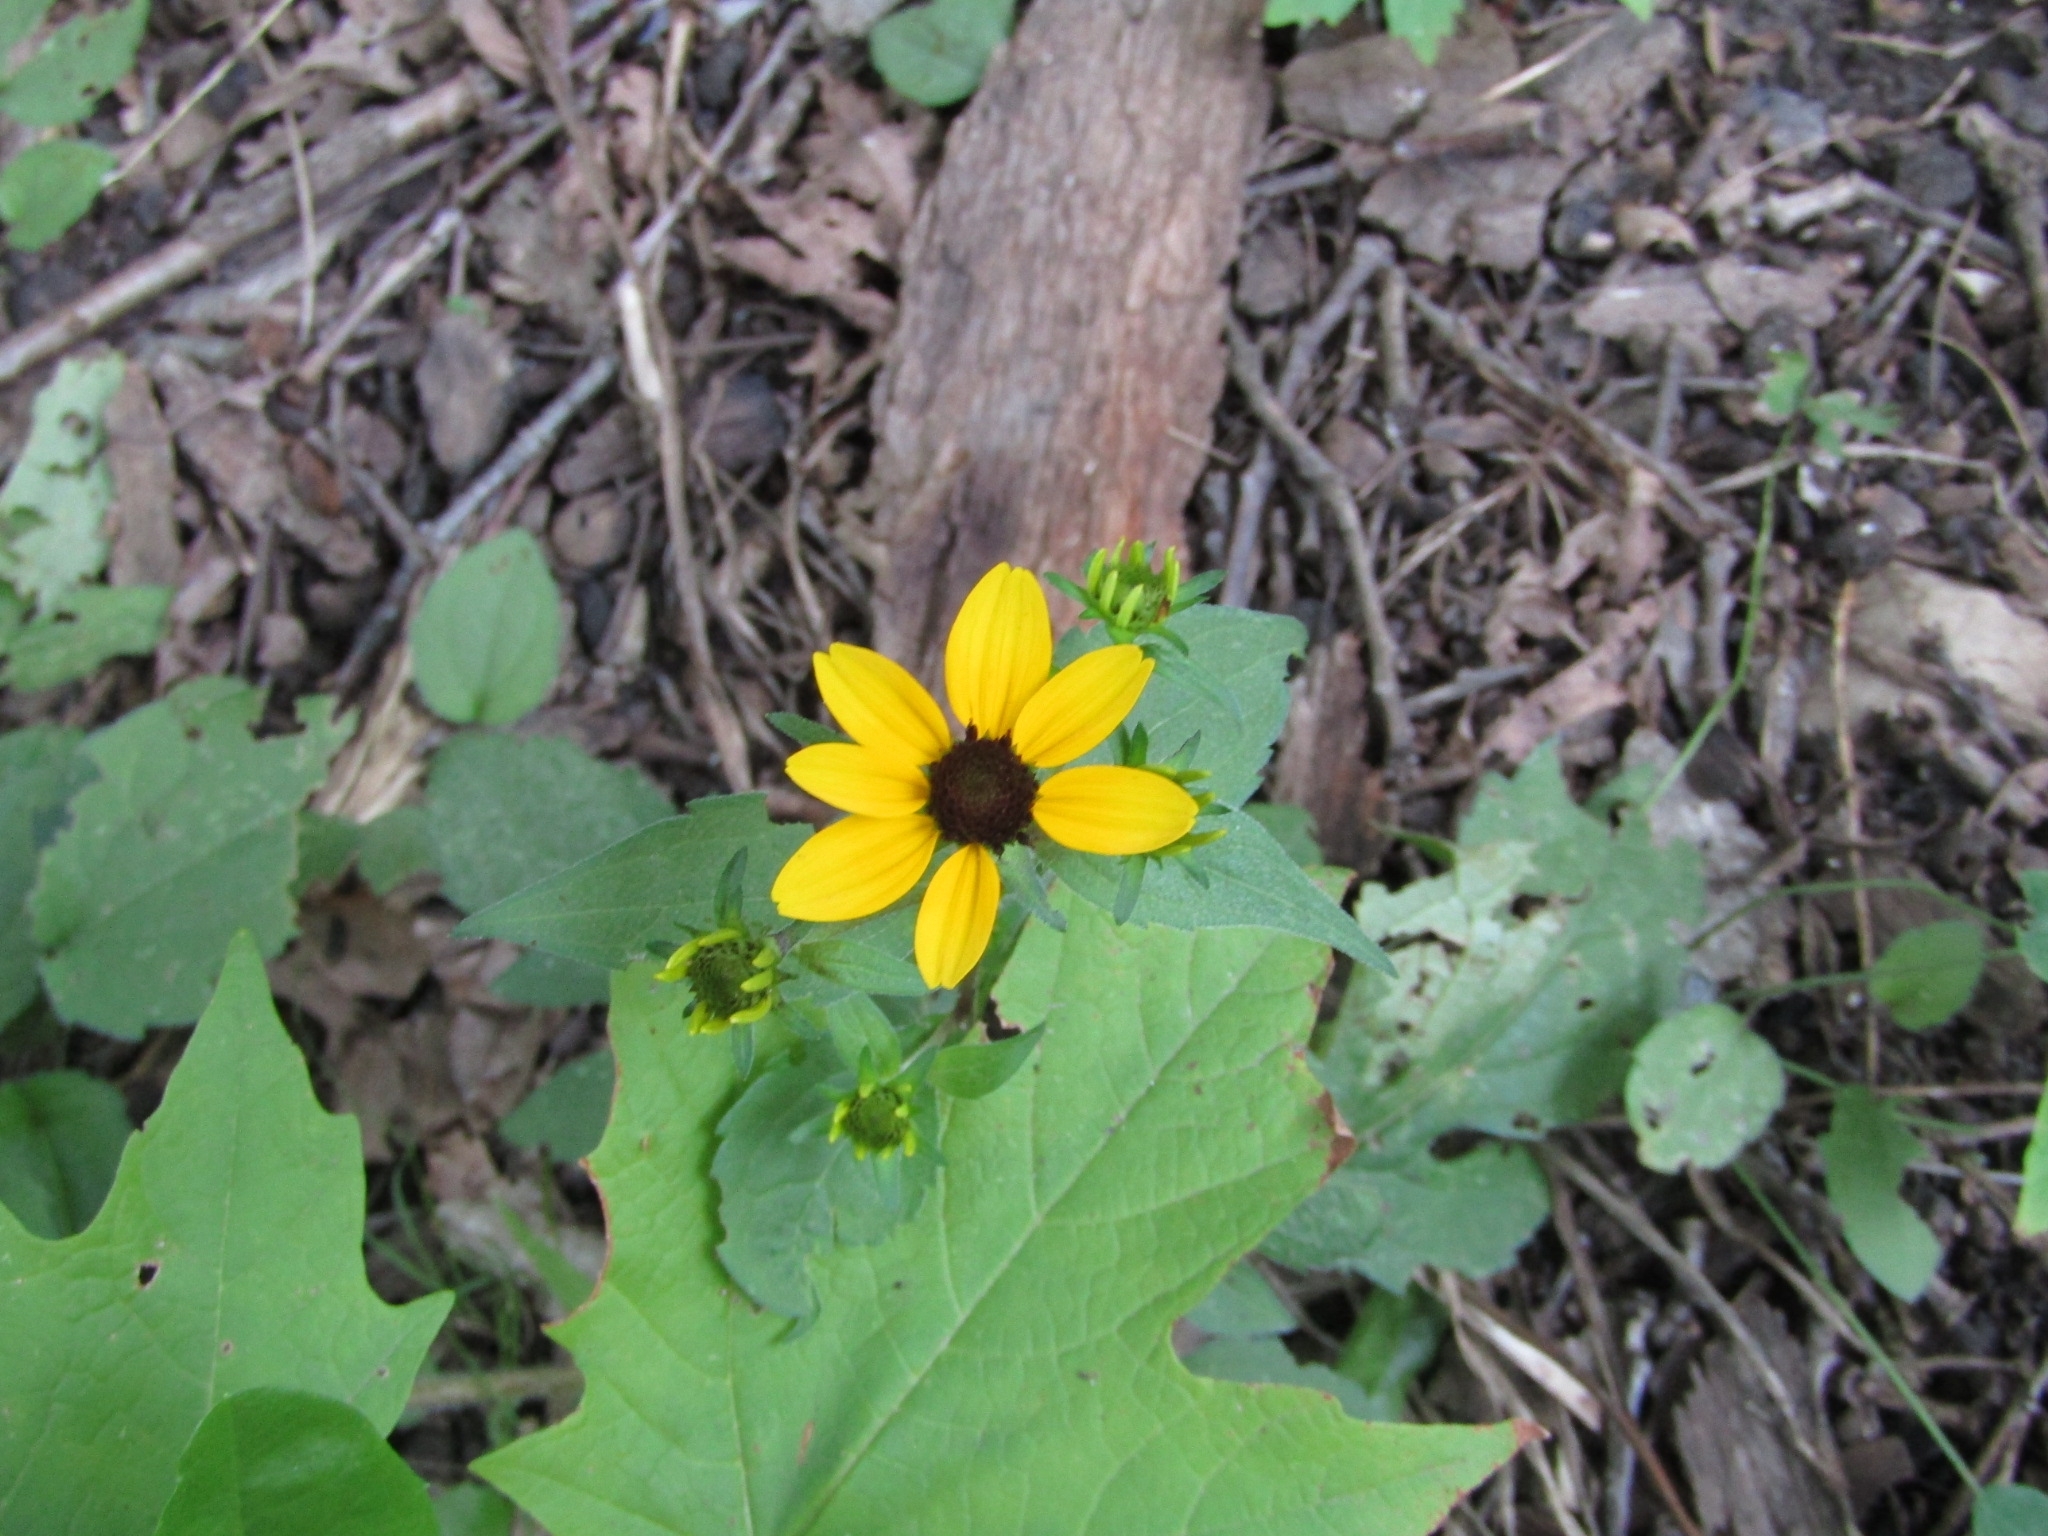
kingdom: Plantae
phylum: Tracheophyta
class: Magnoliopsida
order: Asterales
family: Asteraceae
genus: Rudbeckia
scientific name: Rudbeckia triloba
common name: Thin-leaved coneflower
